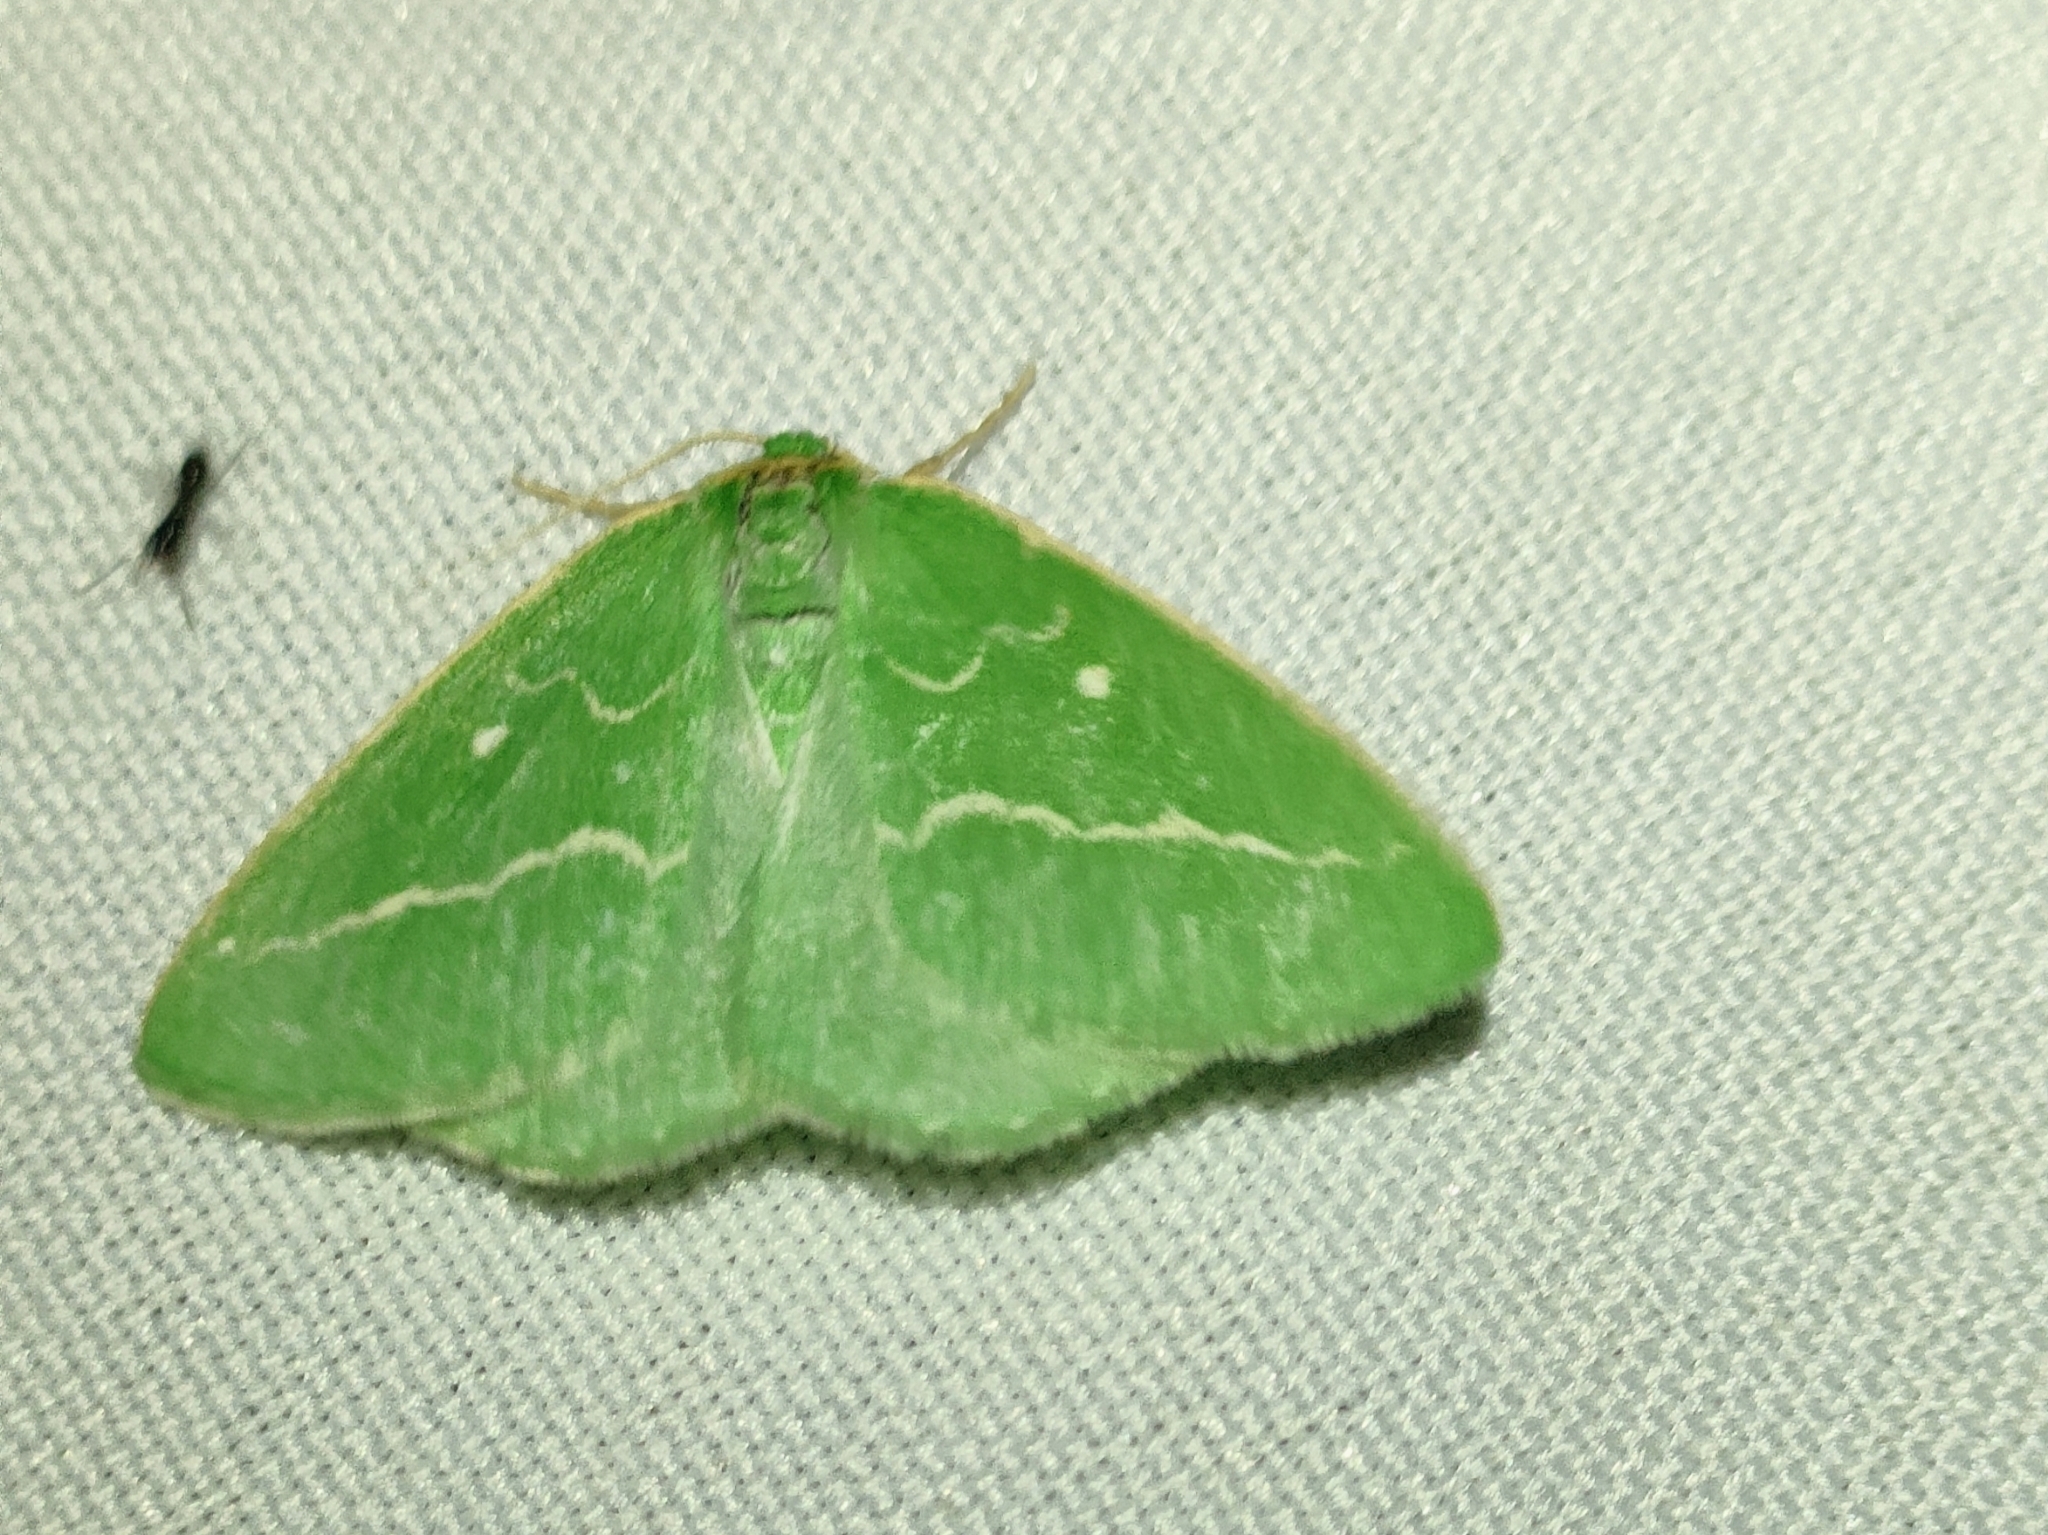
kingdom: Animalia
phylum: Arthropoda
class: Insecta
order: Lepidoptera
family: Geometridae
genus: Thetidia
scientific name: Thetidia smaragdaria
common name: Essex emerald
